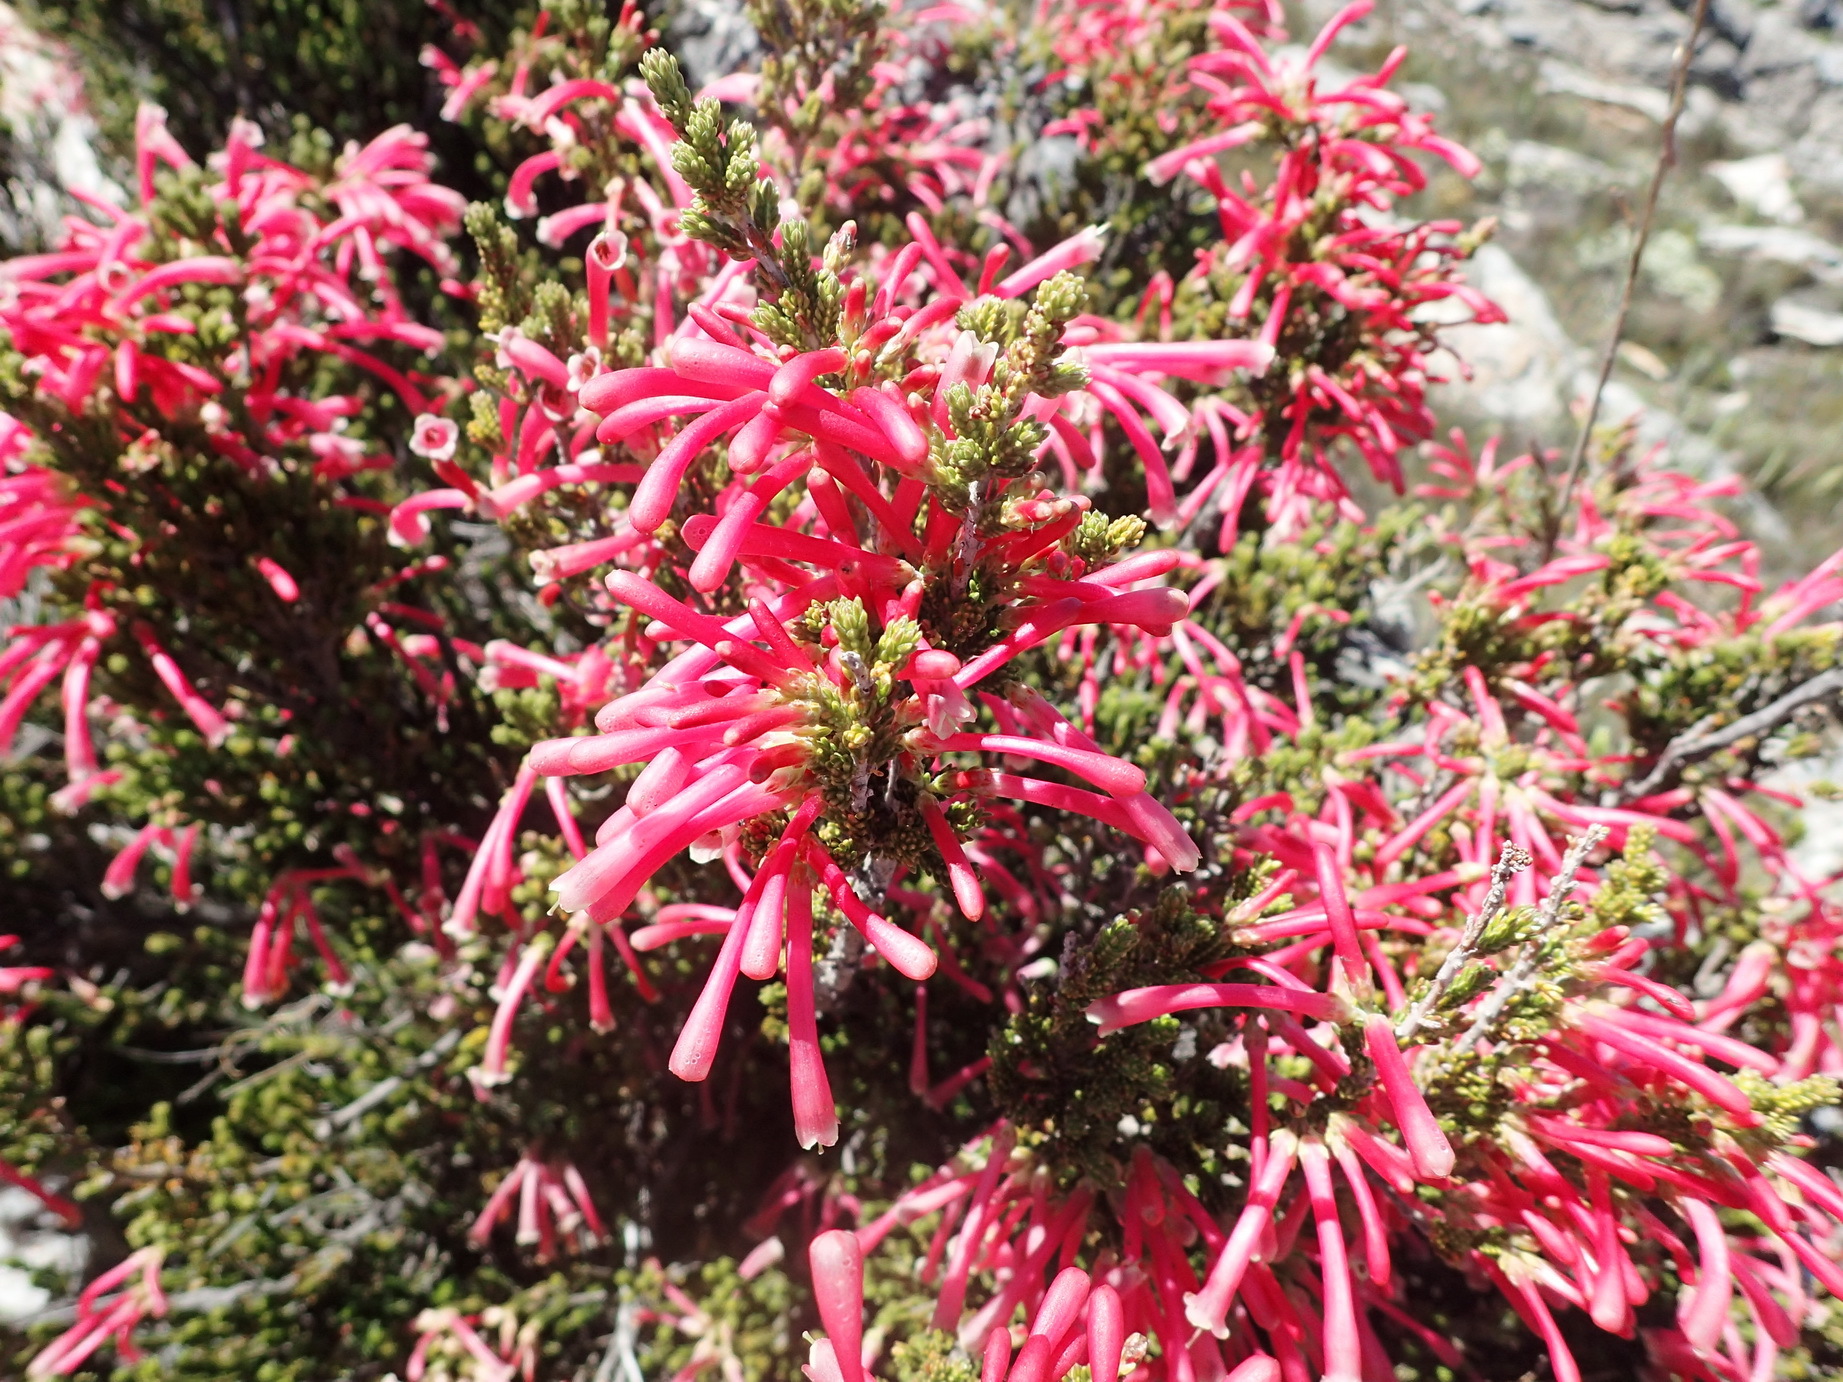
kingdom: Plantae
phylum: Tracheophyta
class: Magnoliopsida
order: Ericales
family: Ericaceae
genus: Erica
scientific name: Erica discolor
